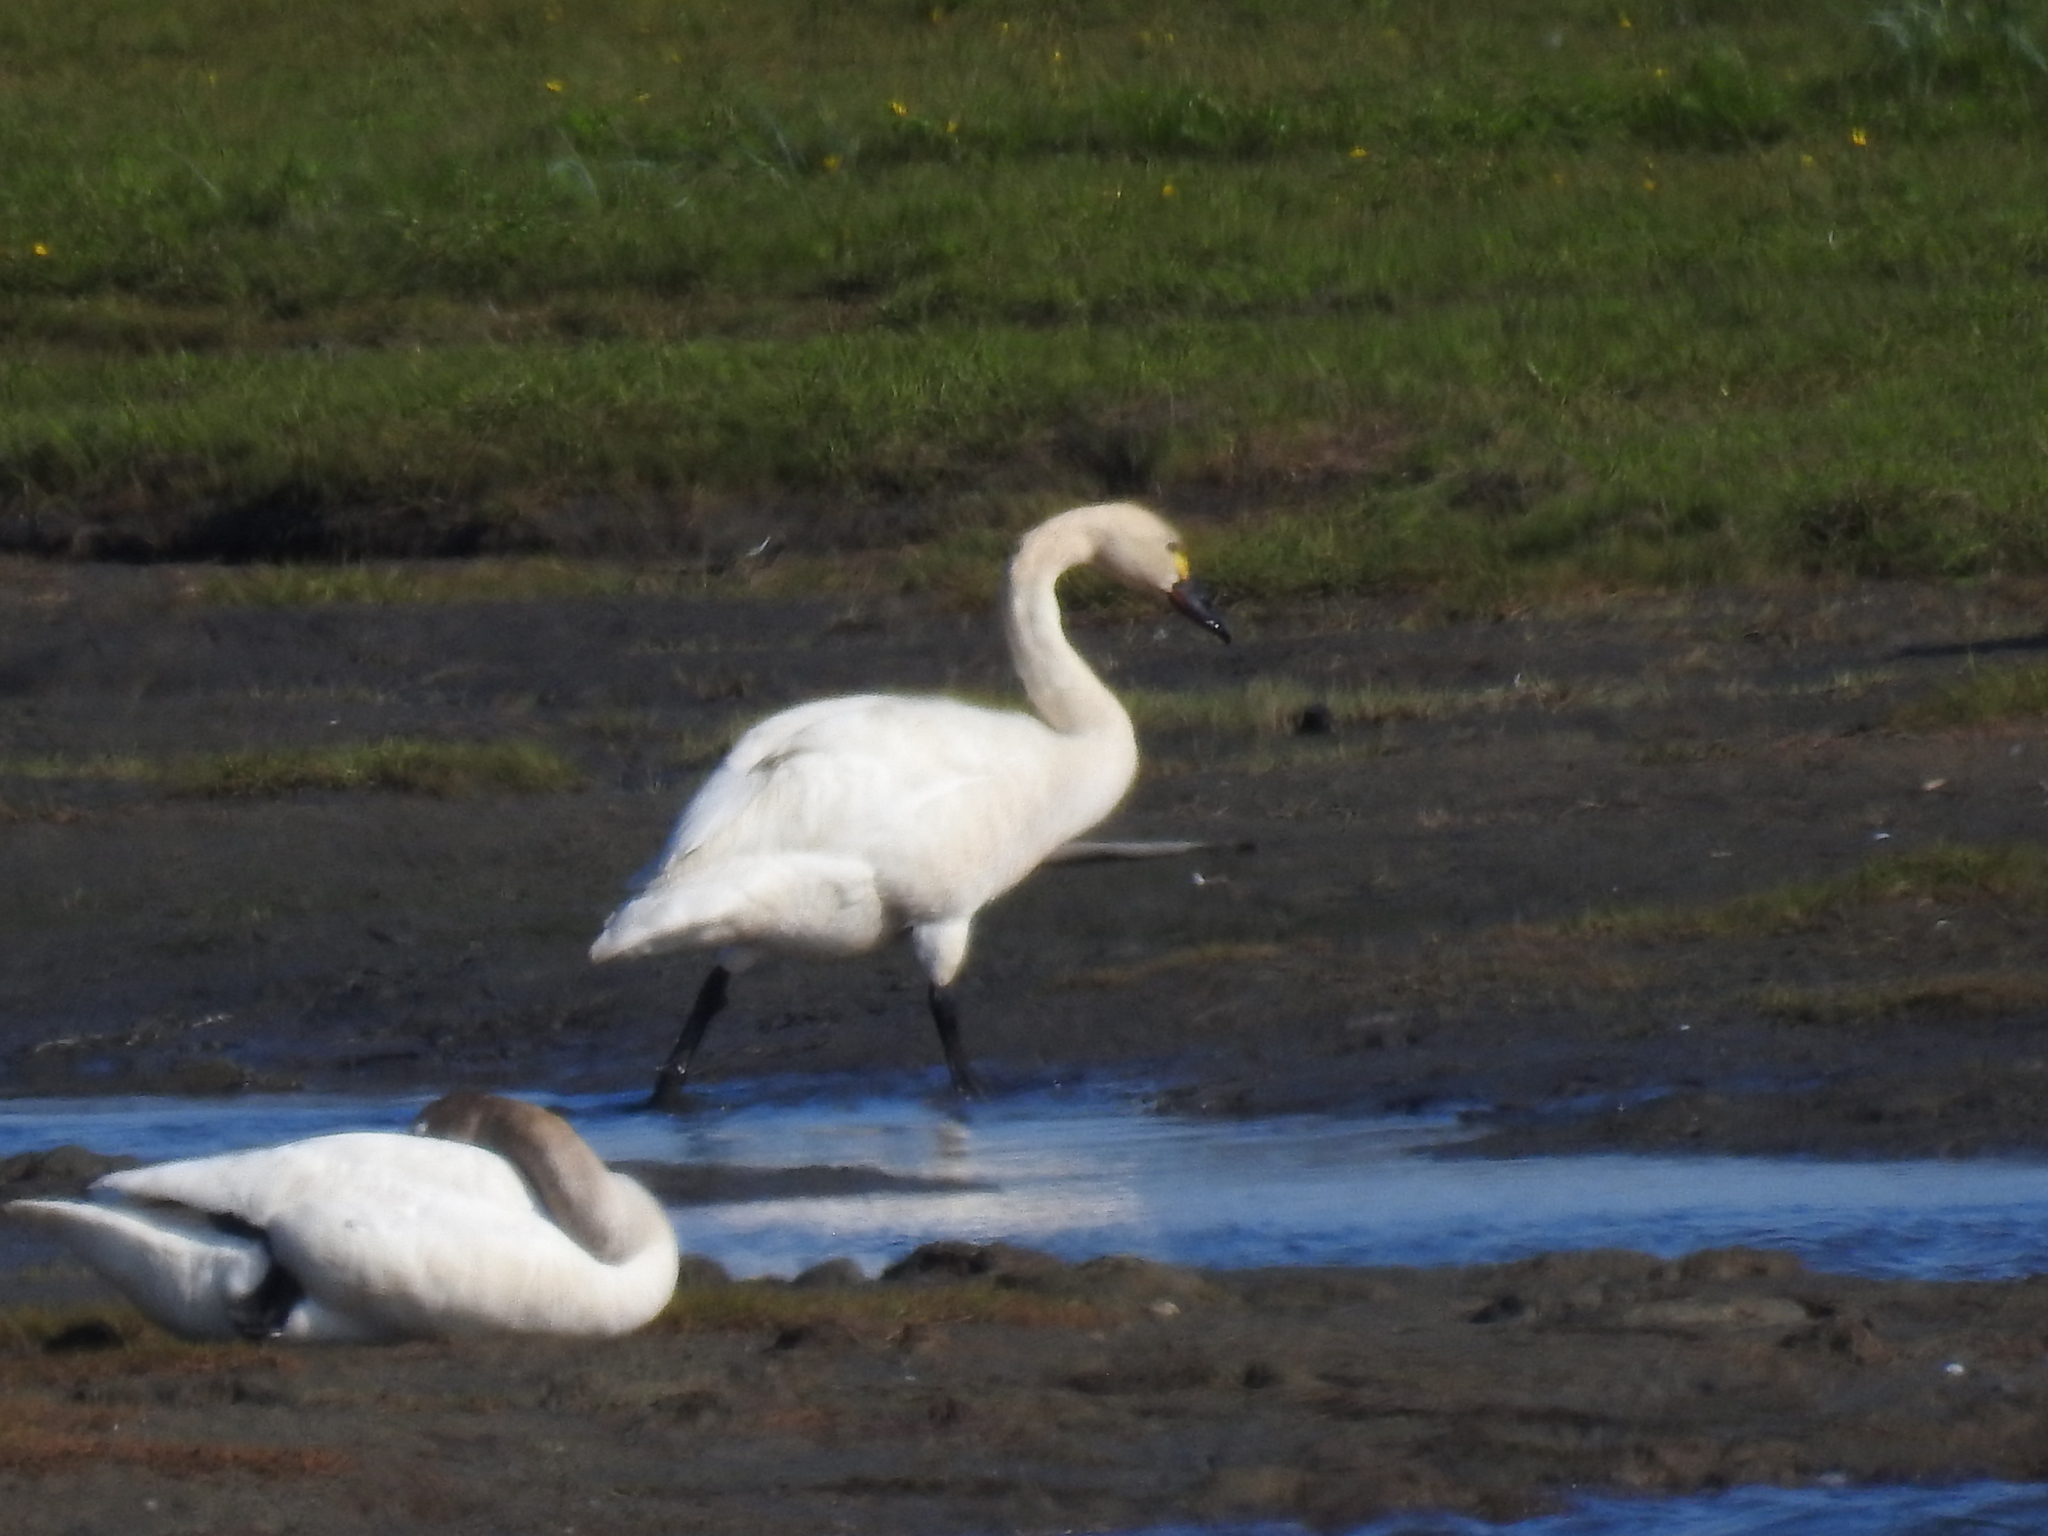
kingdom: Animalia
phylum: Chordata
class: Aves
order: Anseriformes
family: Anatidae
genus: Cygnus
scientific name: Cygnus columbianus
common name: Tundra swan
